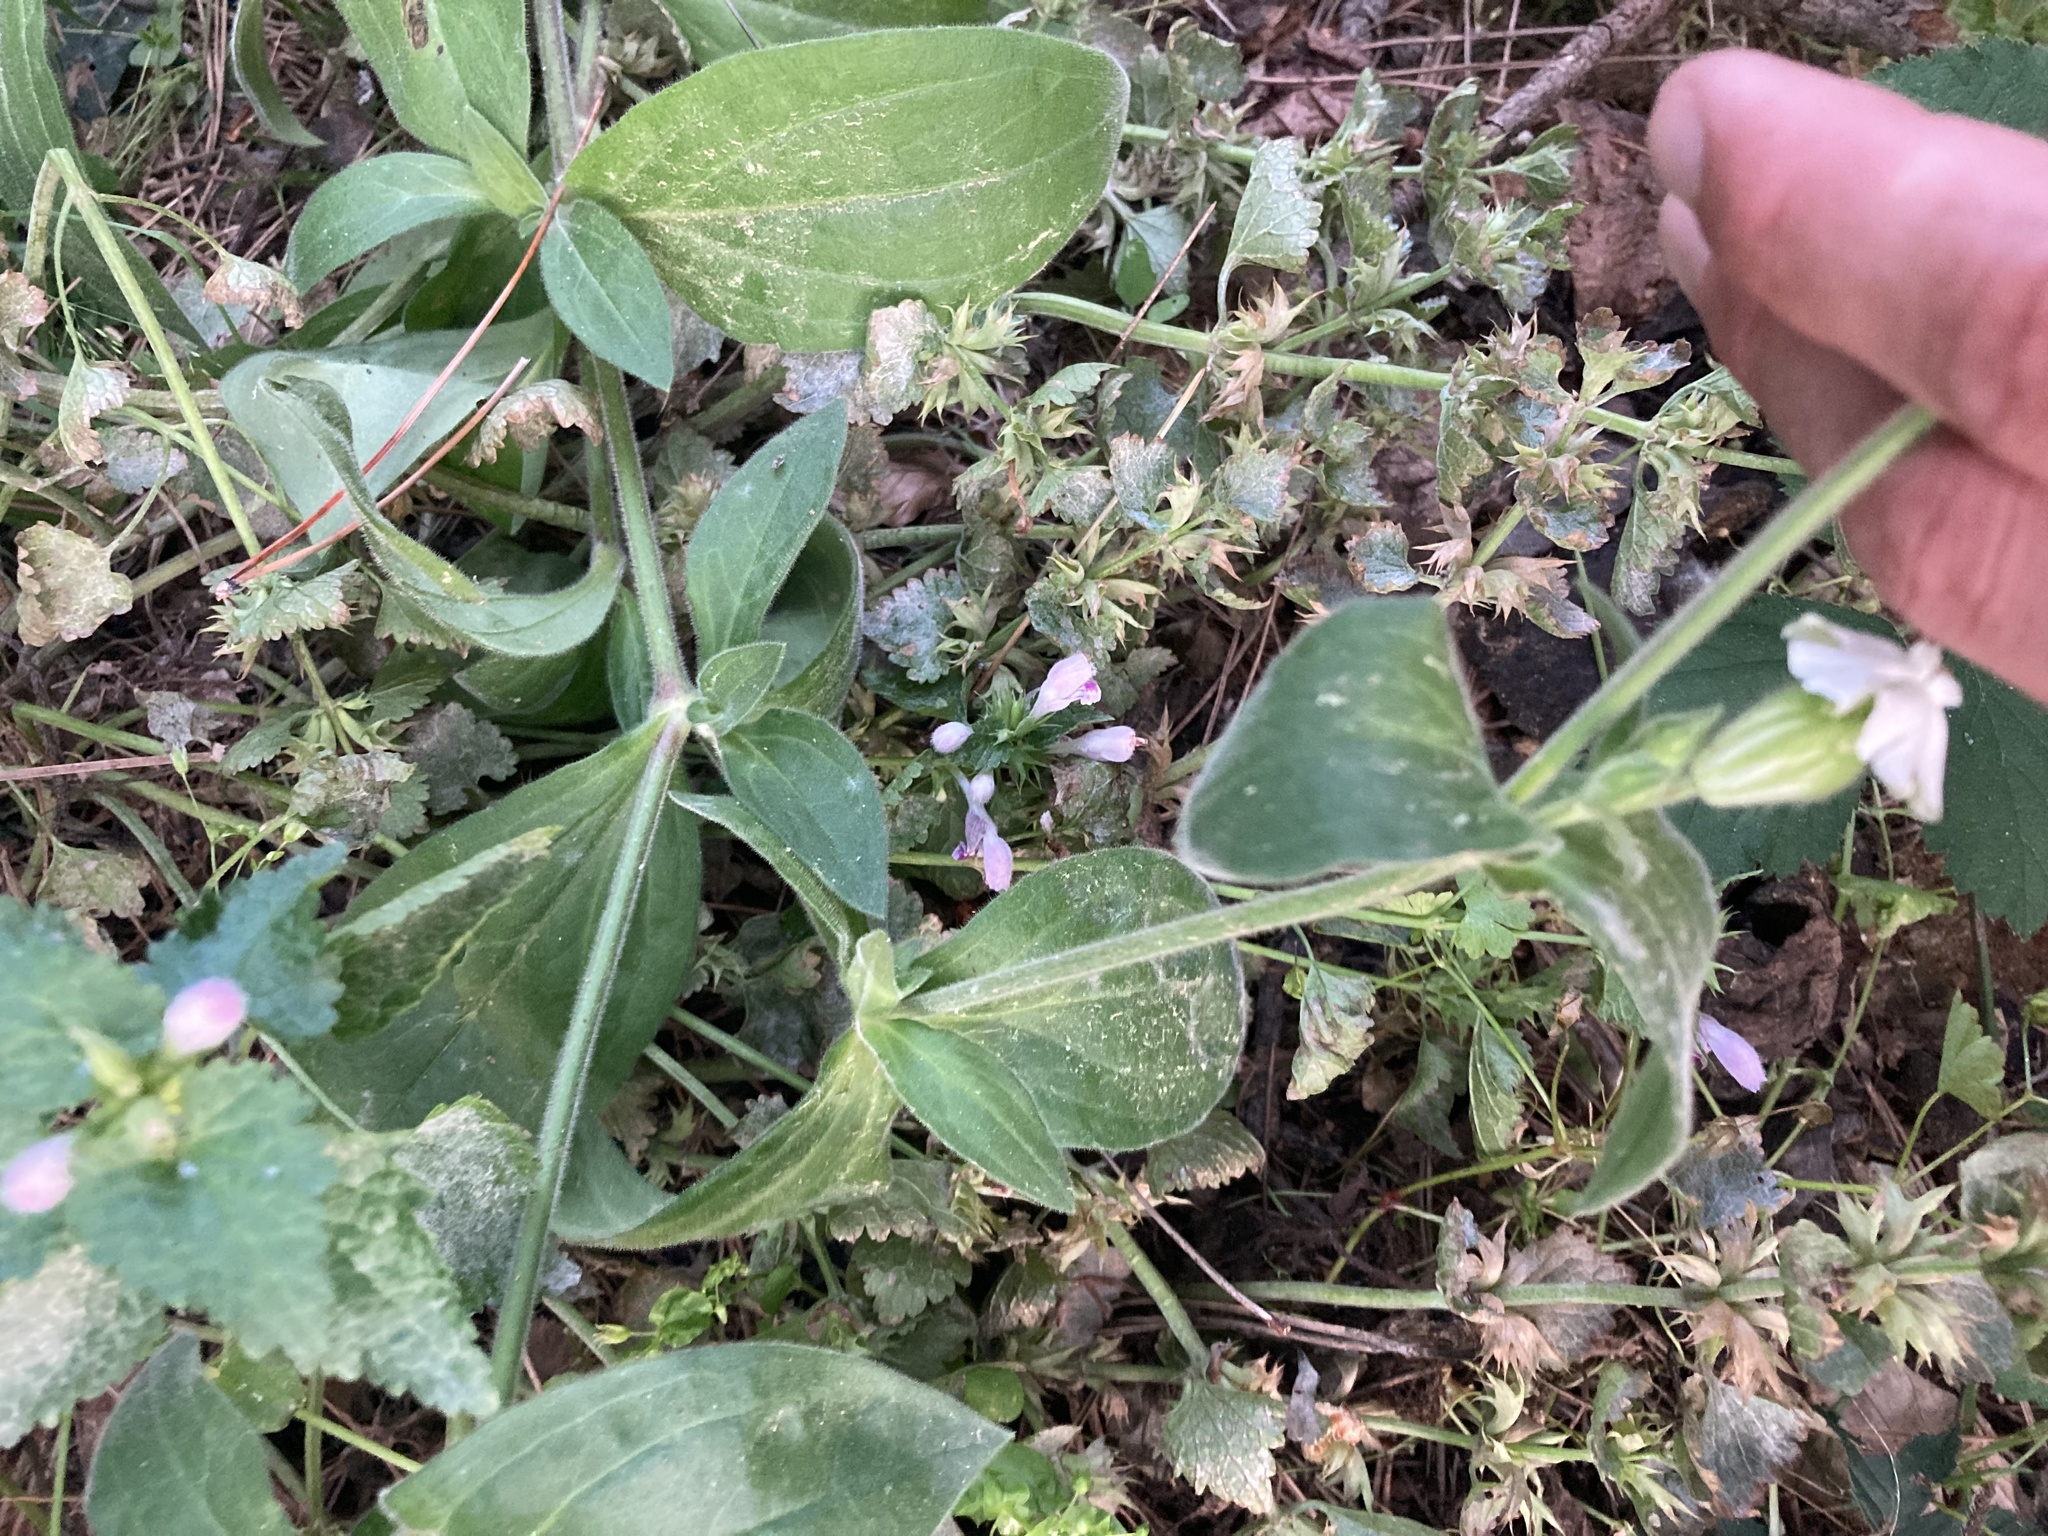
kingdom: Plantae
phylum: Tracheophyta
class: Magnoliopsida
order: Caryophyllales
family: Caryophyllaceae
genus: Silene
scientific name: Silene latifolia
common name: White campion
